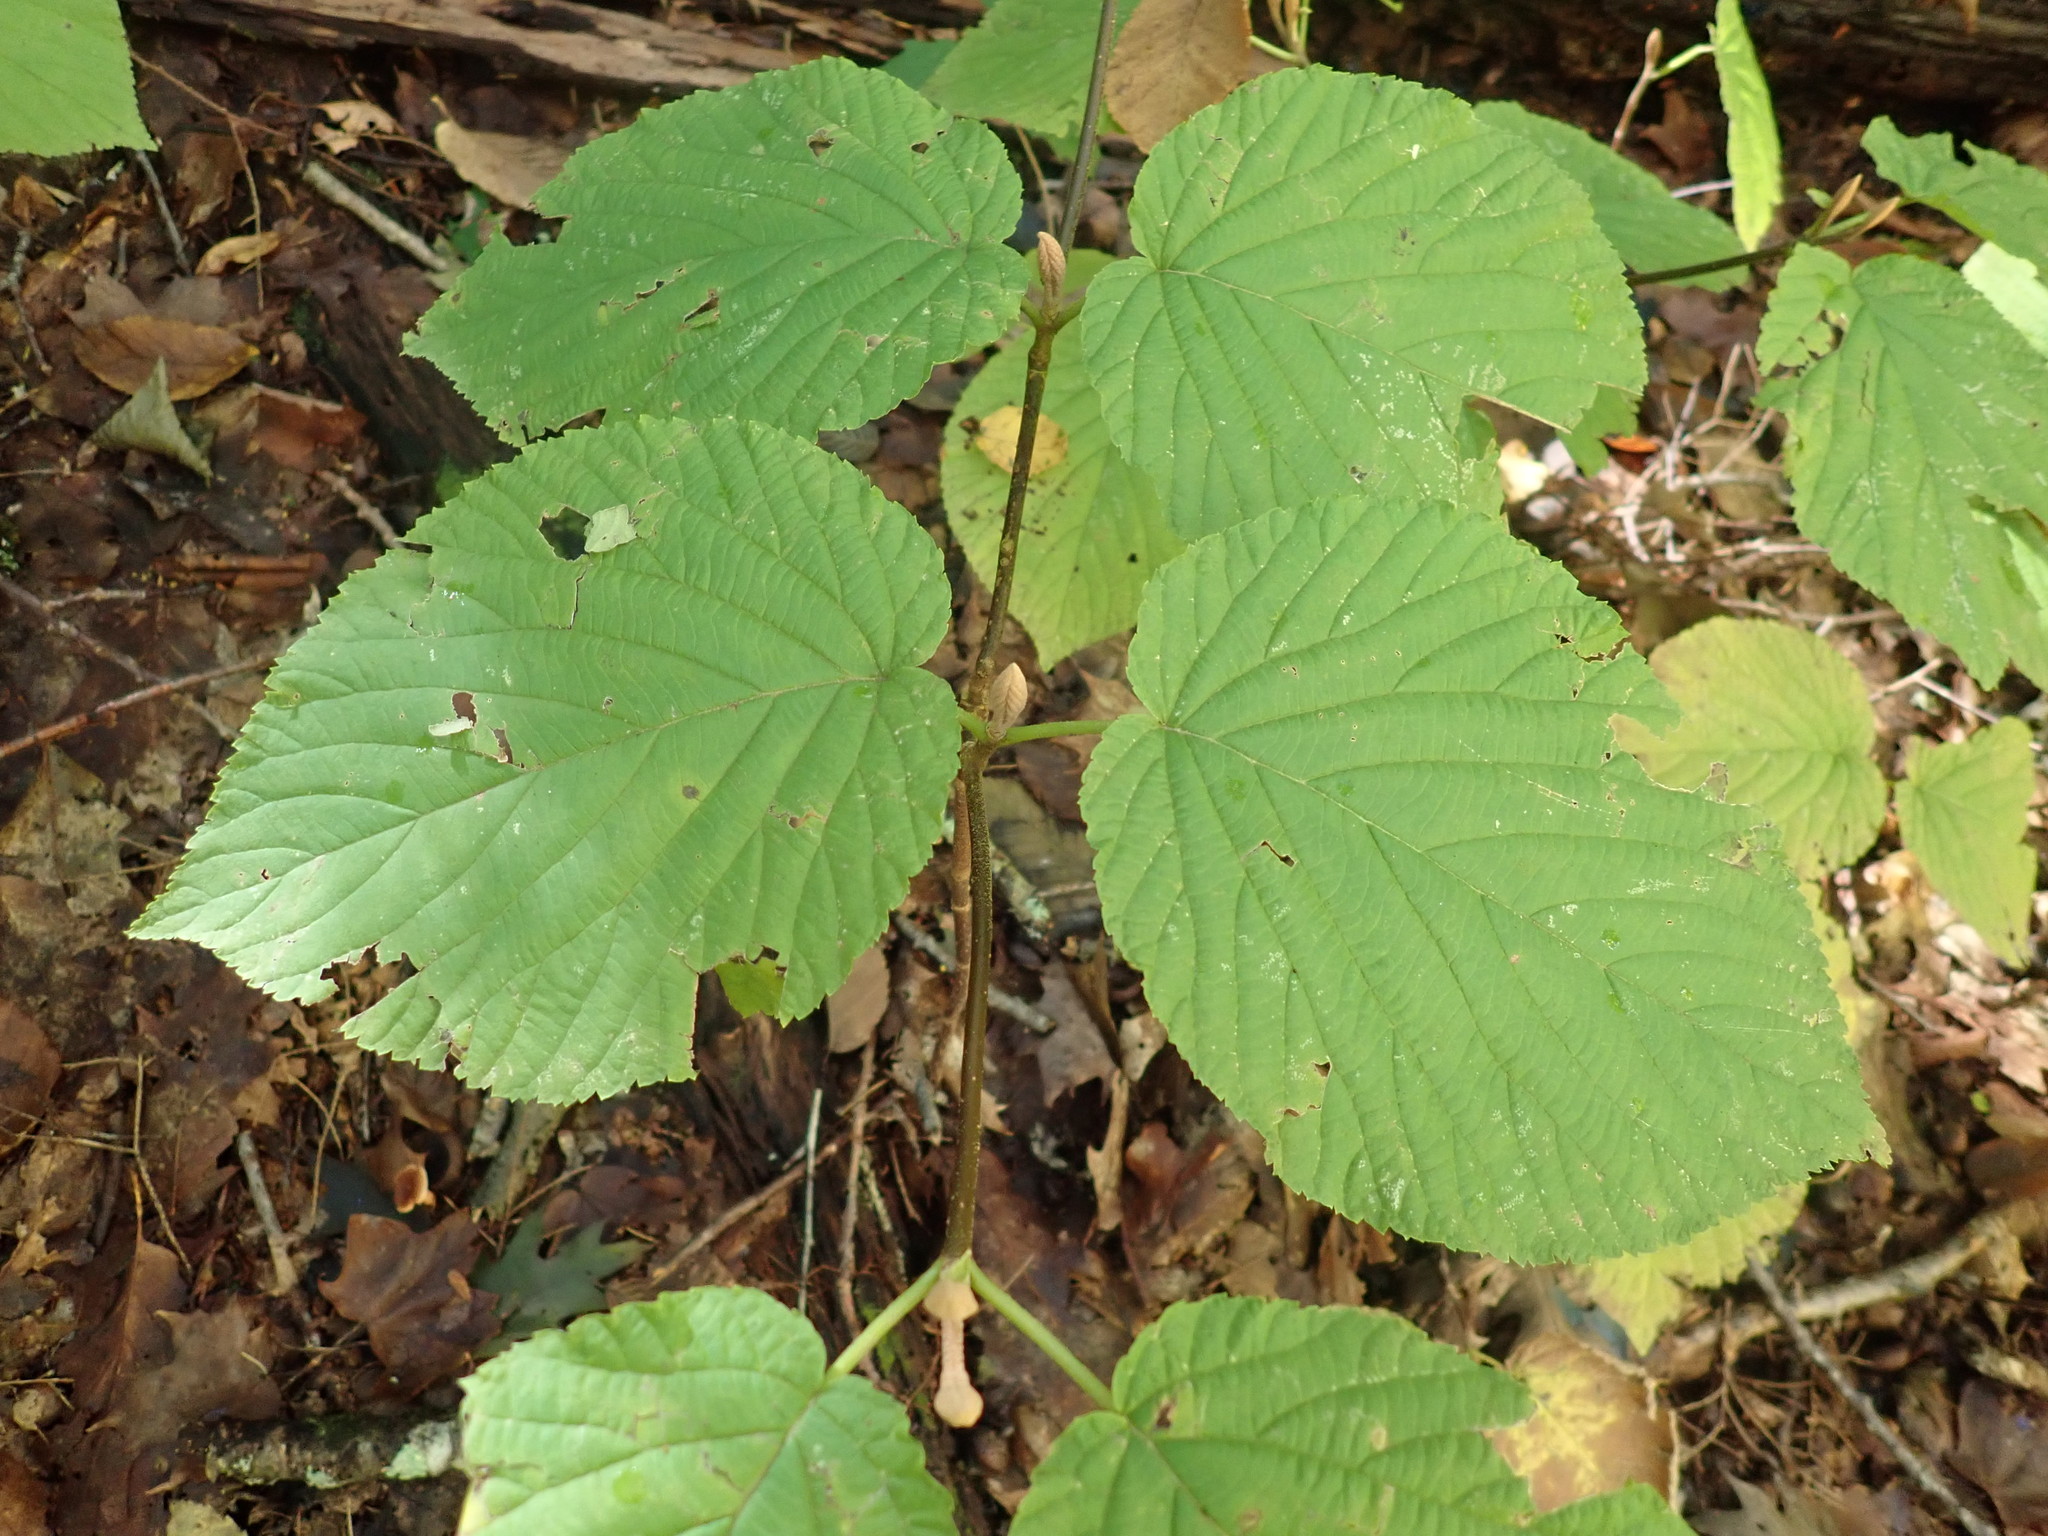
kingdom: Plantae
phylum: Tracheophyta
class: Magnoliopsida
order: Dipsacales
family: Viburnaceae
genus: Viburnum
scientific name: Viburnum lantanoides
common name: Hobblebush
